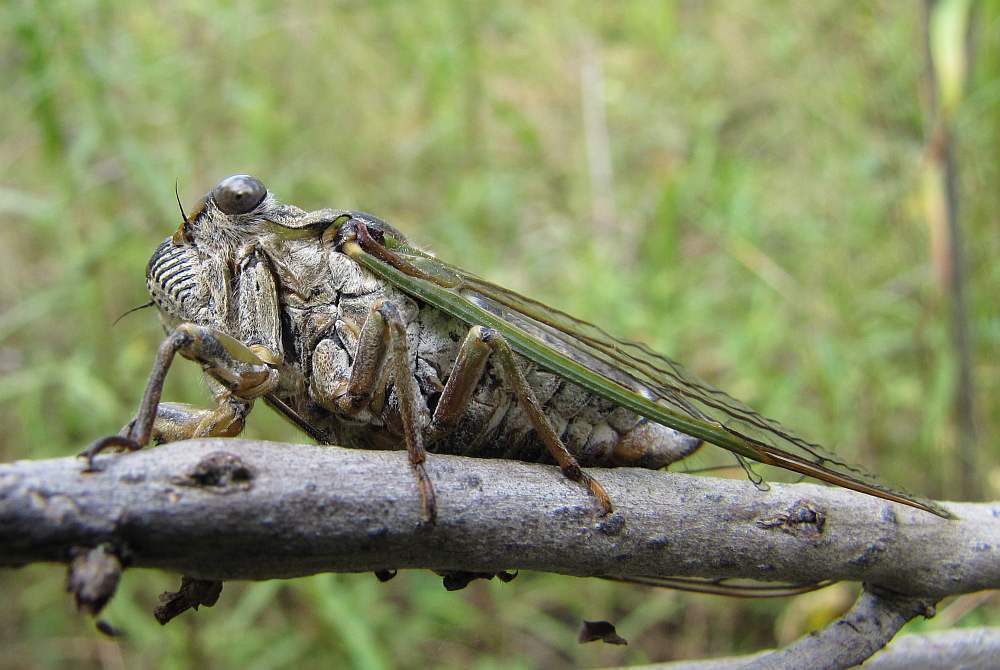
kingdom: Animalia
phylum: Arthropoda
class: Insecta
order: Hemiptera
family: Cicadidae
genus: Neotibicen
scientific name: Neotibicen canicularis
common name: God-day cicada
